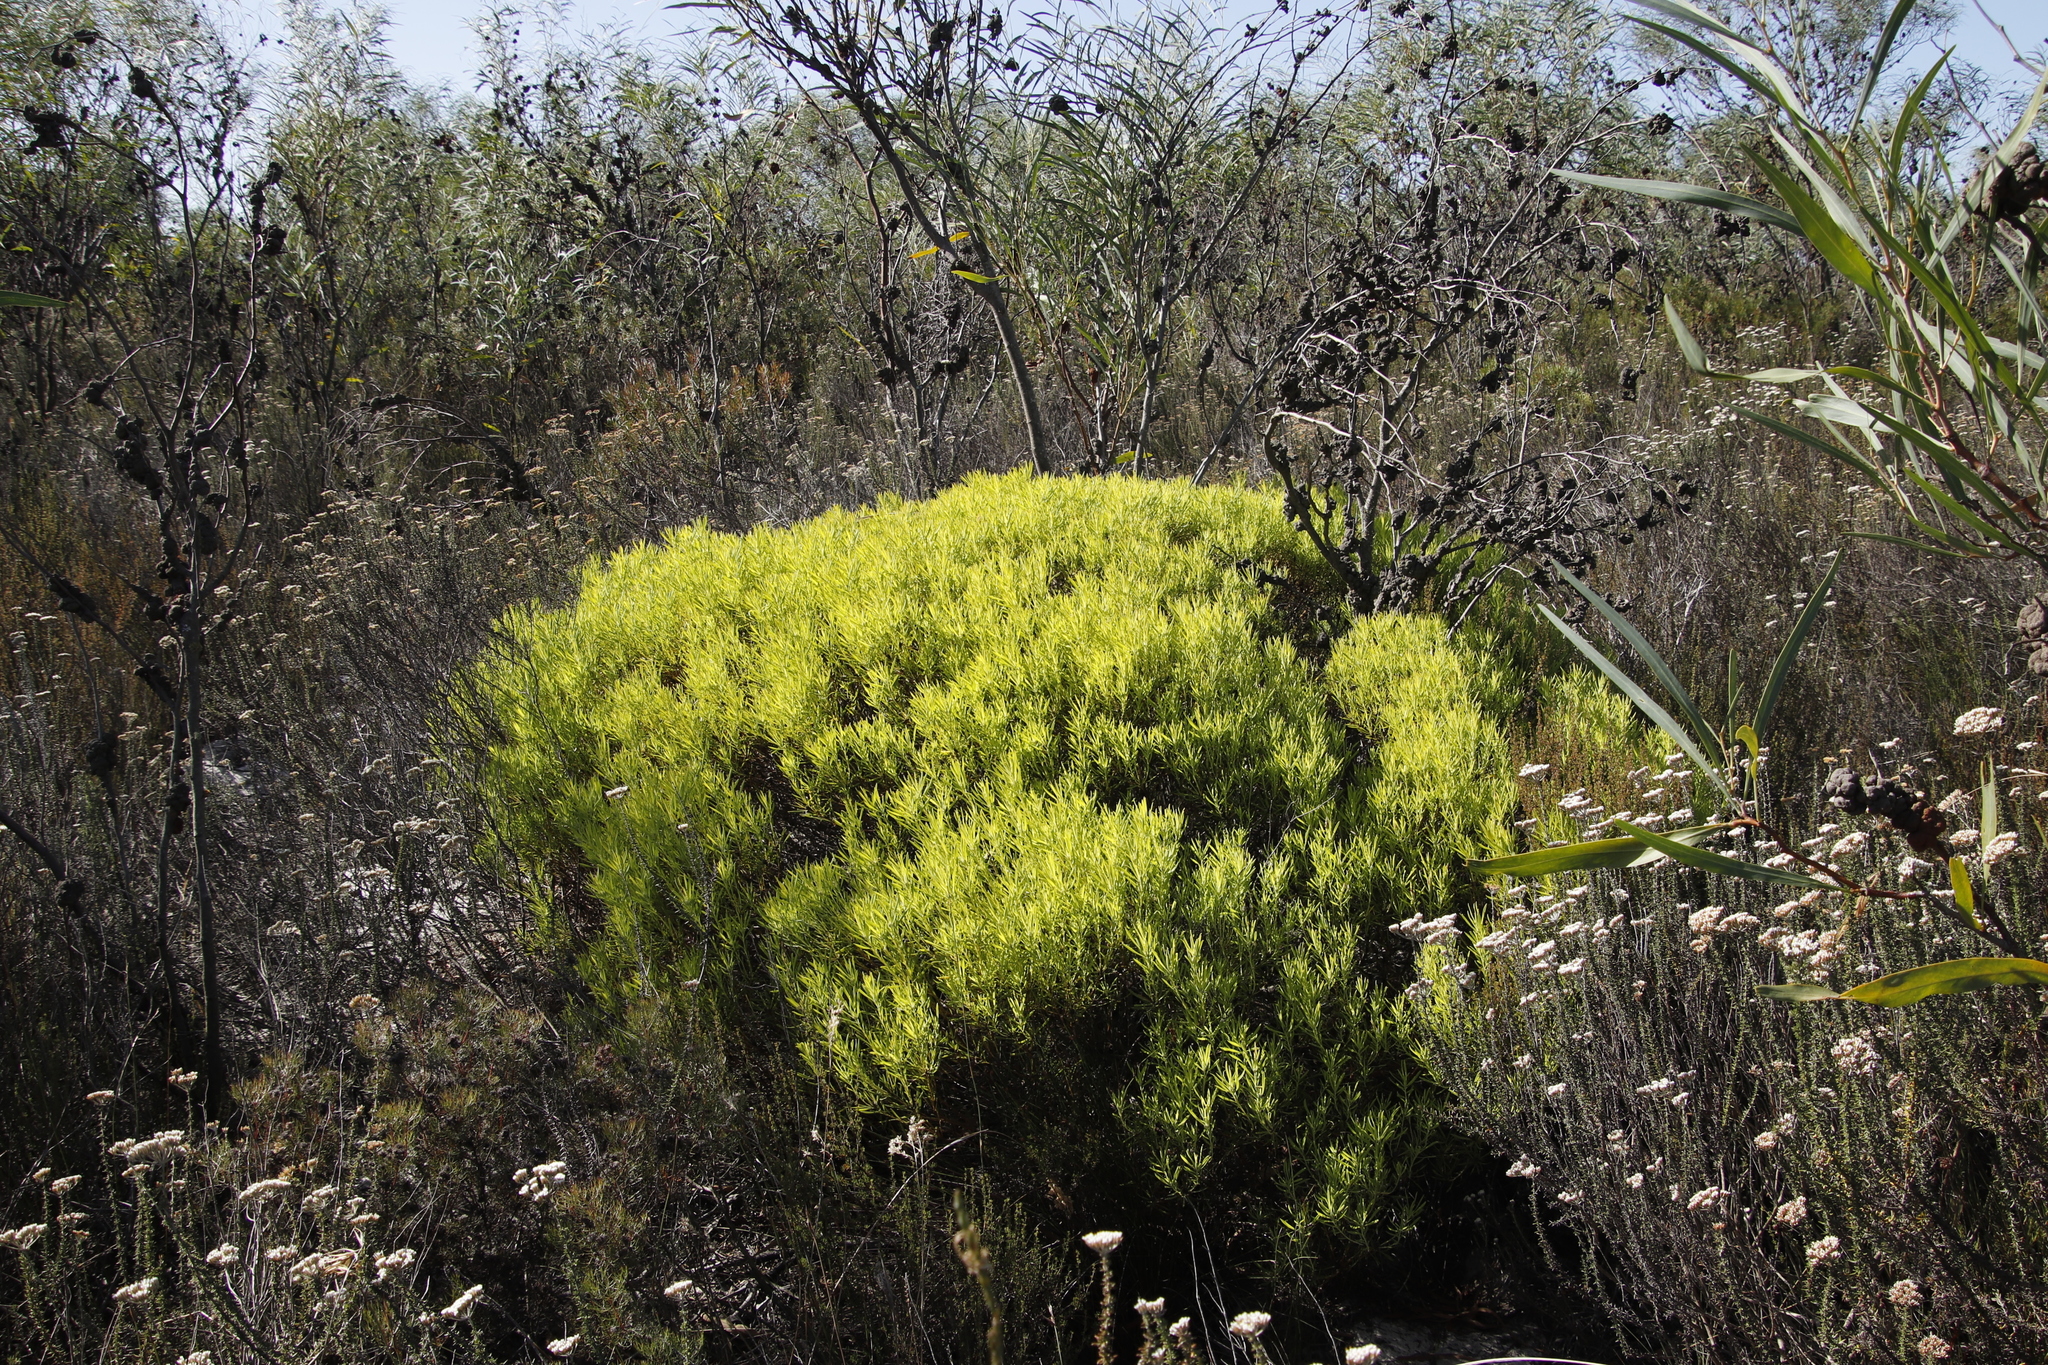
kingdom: Plantae
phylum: Tracheophyta
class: Magnoliopsida
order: Proteales
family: Proteaceae
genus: Leucadendron
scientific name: Leucadendron salignum
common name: Common sunshine conebush
